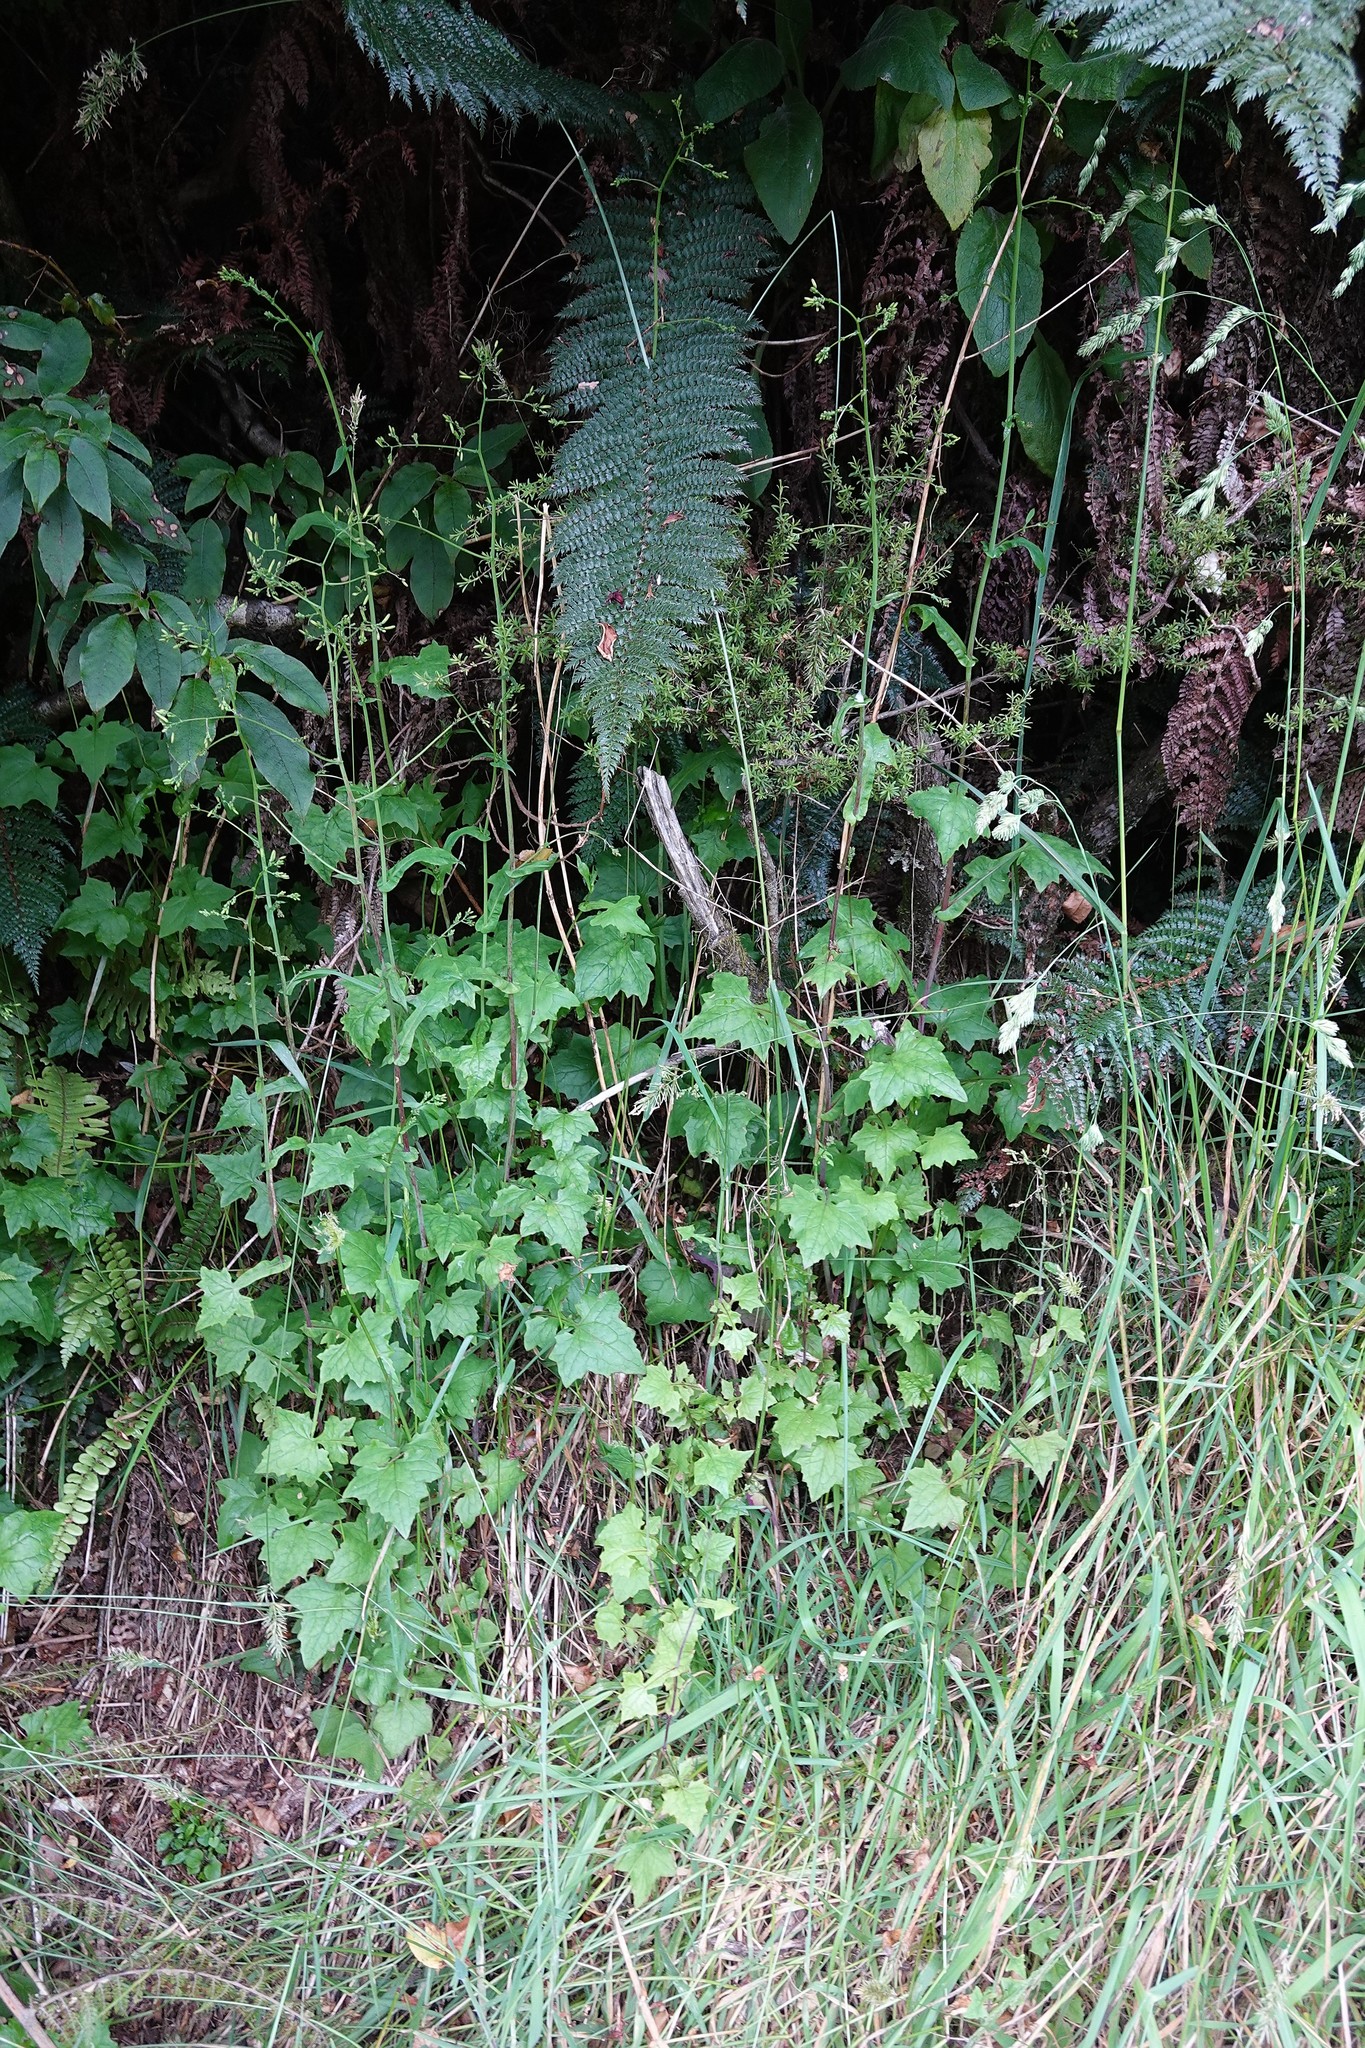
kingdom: Plantae
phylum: Tracheophyta
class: Magnoliopsida
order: Asterales
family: Asteraceae
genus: Mycelis
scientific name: Mycelis muralis
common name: Wall lettuce
